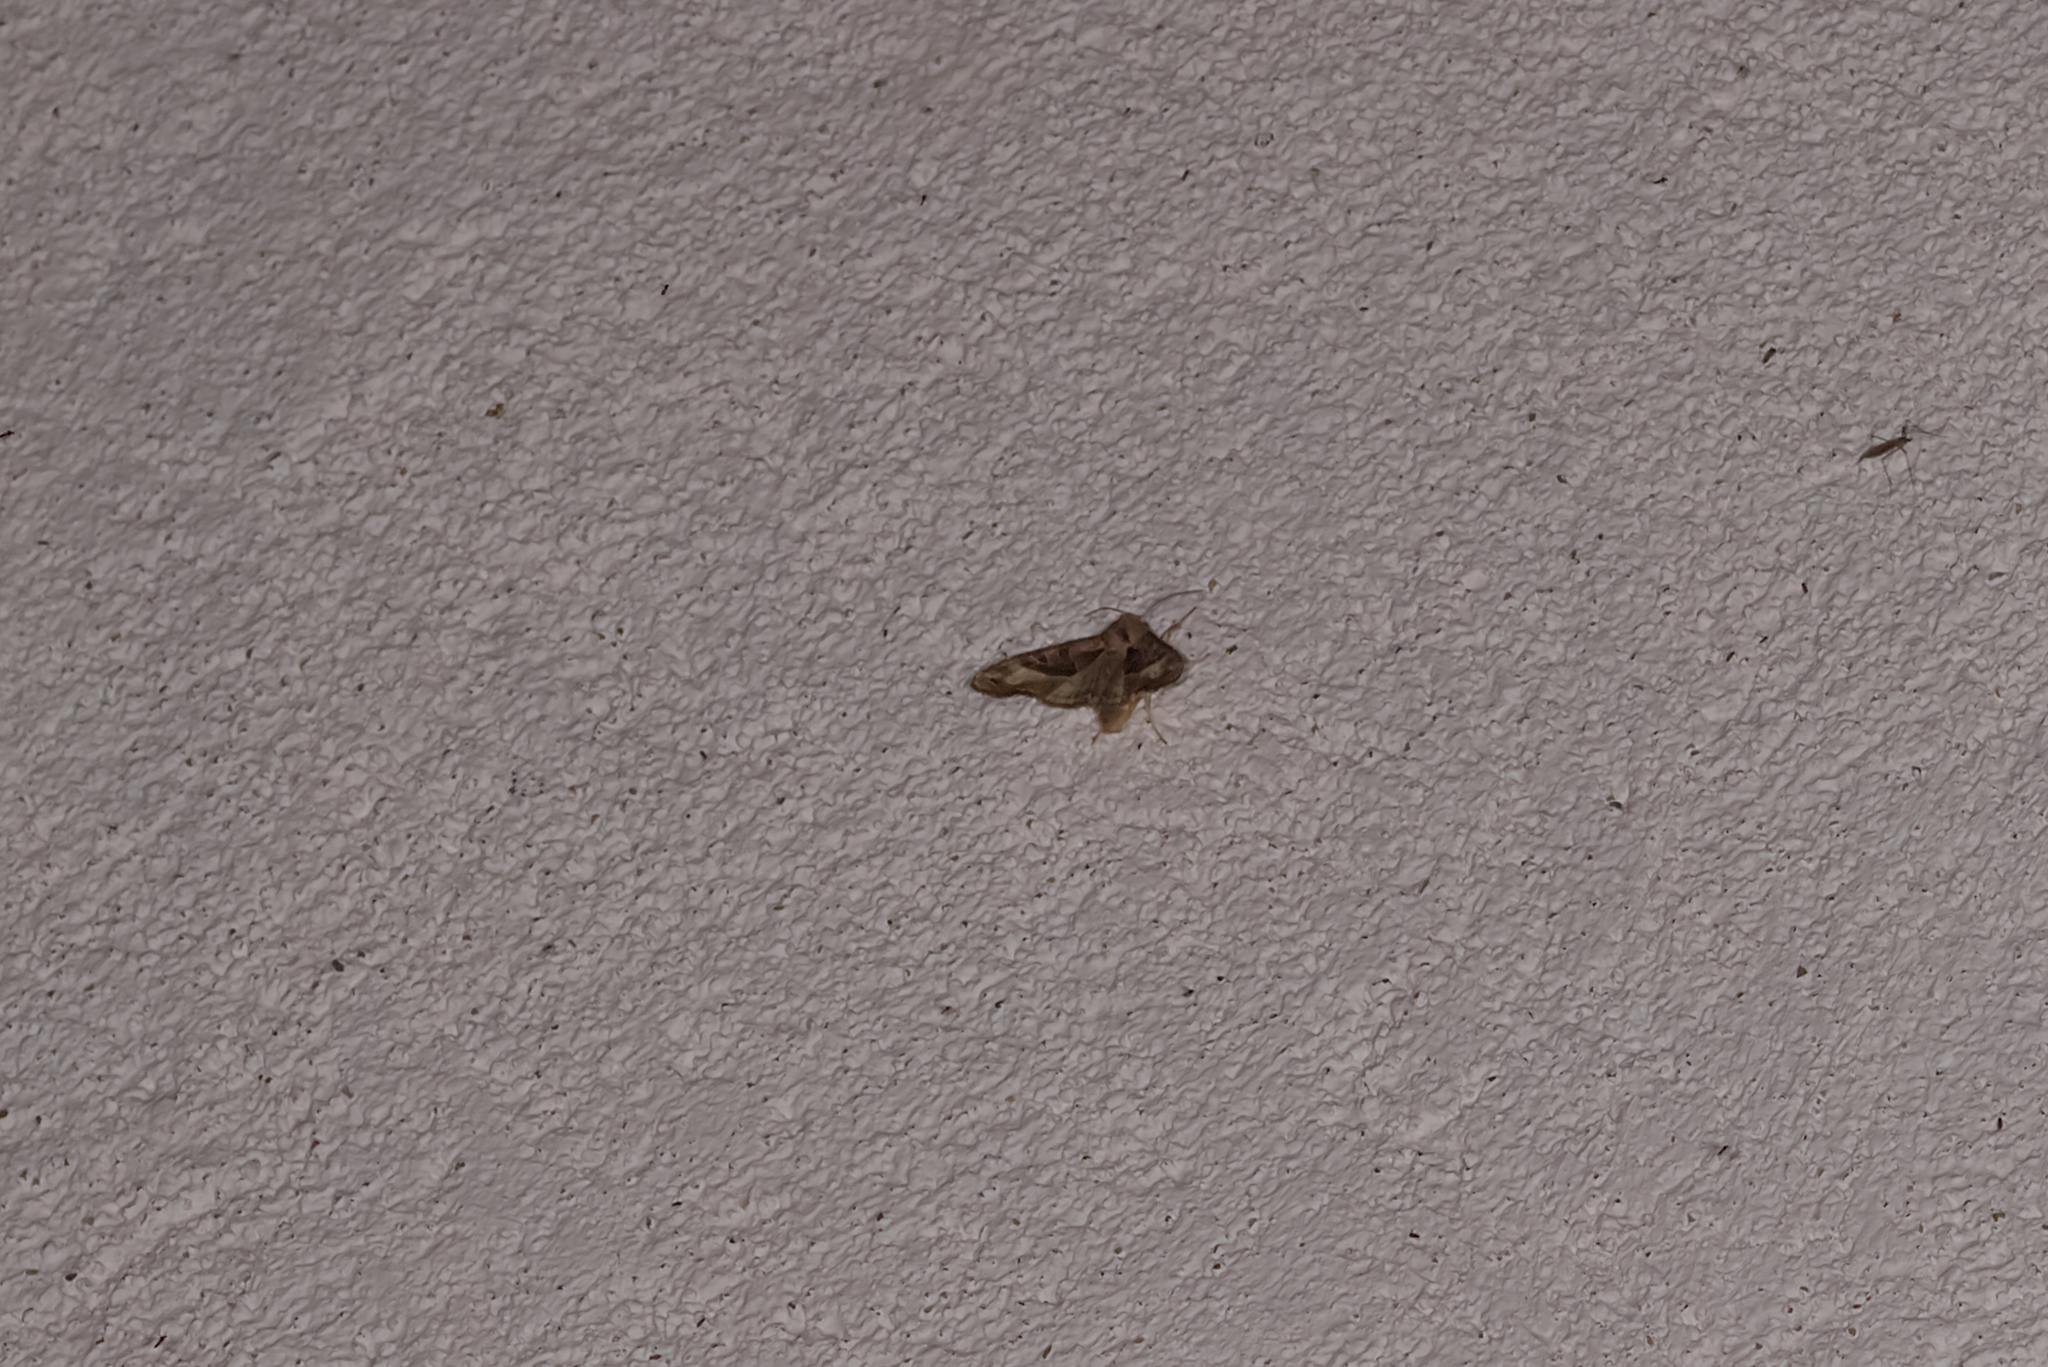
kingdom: Animalia
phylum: Arthropoda
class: Insecta
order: Lepidoptera
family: Noctuidae
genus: Phlogophora
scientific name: Phlogophora meticulosa
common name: Angle shades
